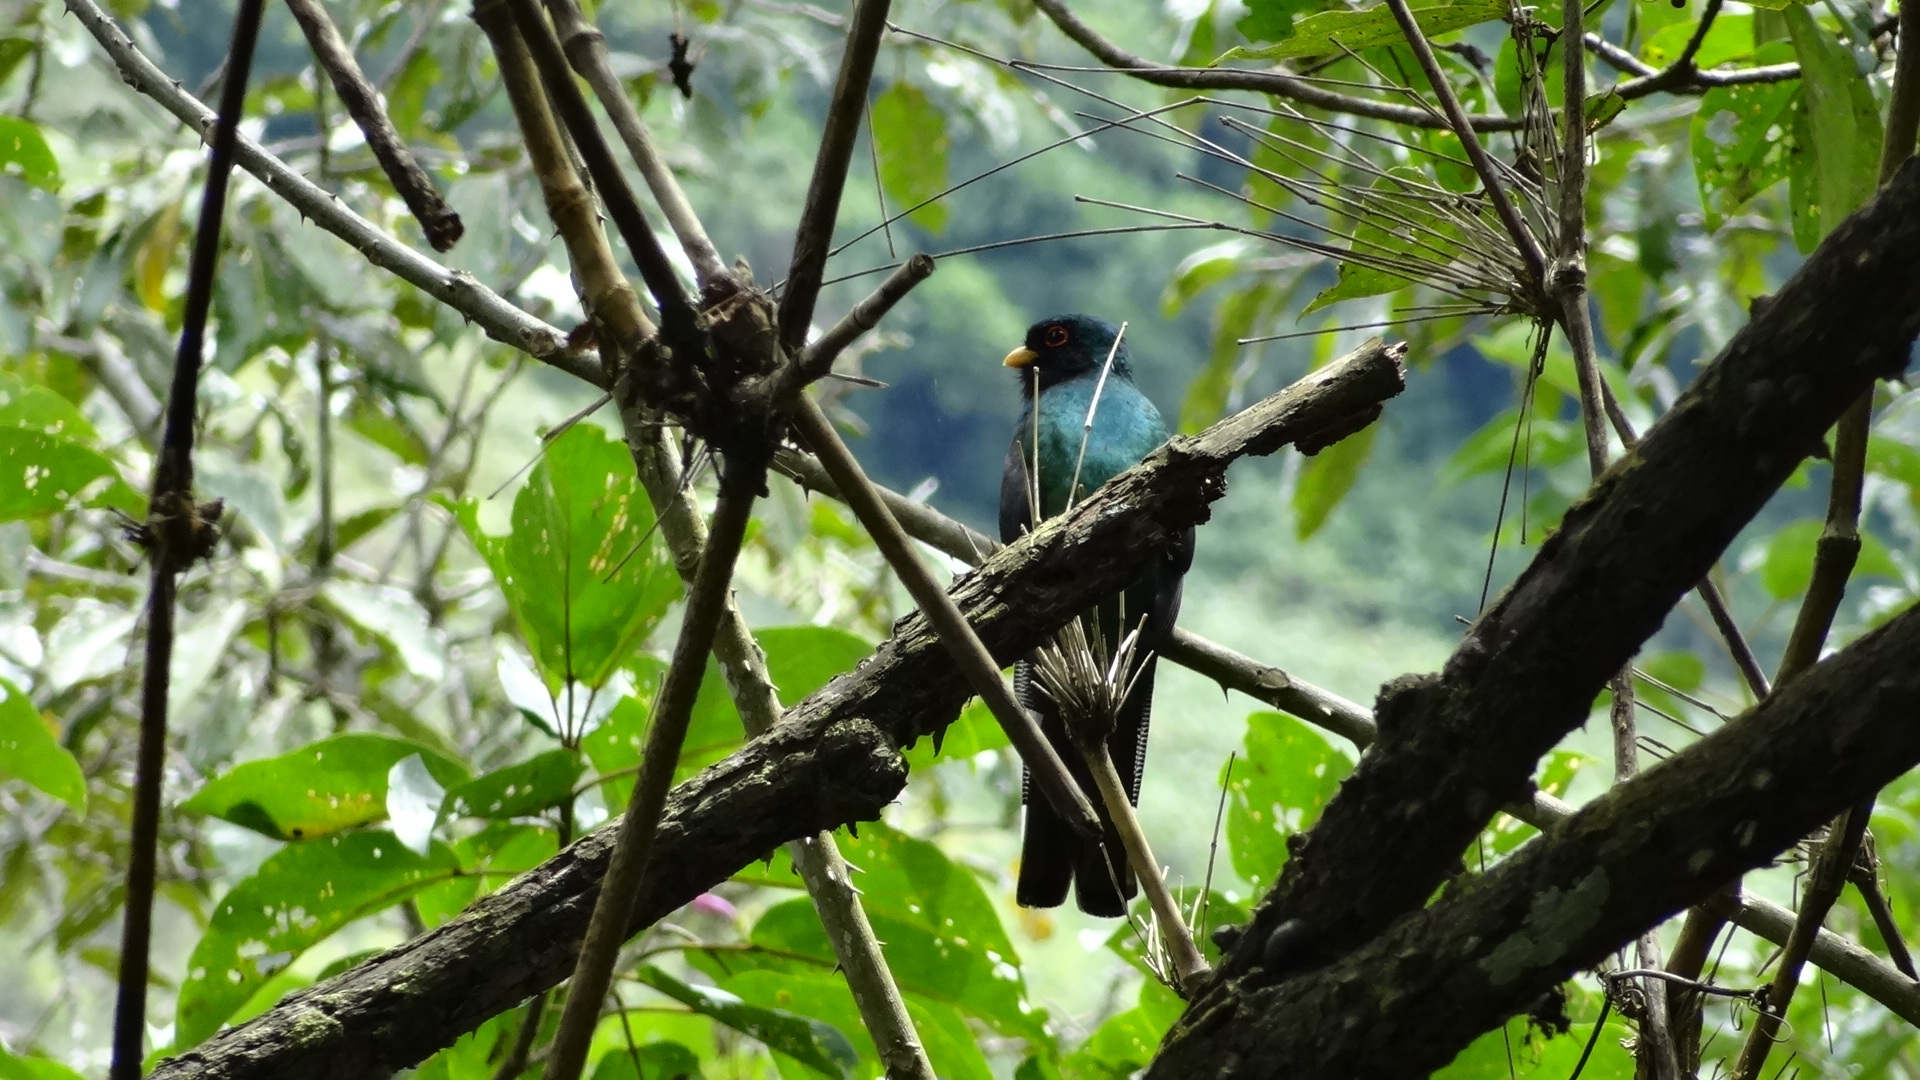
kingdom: Animalia
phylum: Chordata
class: Aves
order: Trogoniformes
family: Trogonidae
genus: Trogon
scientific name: Trogon personatus
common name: Masked trogon
